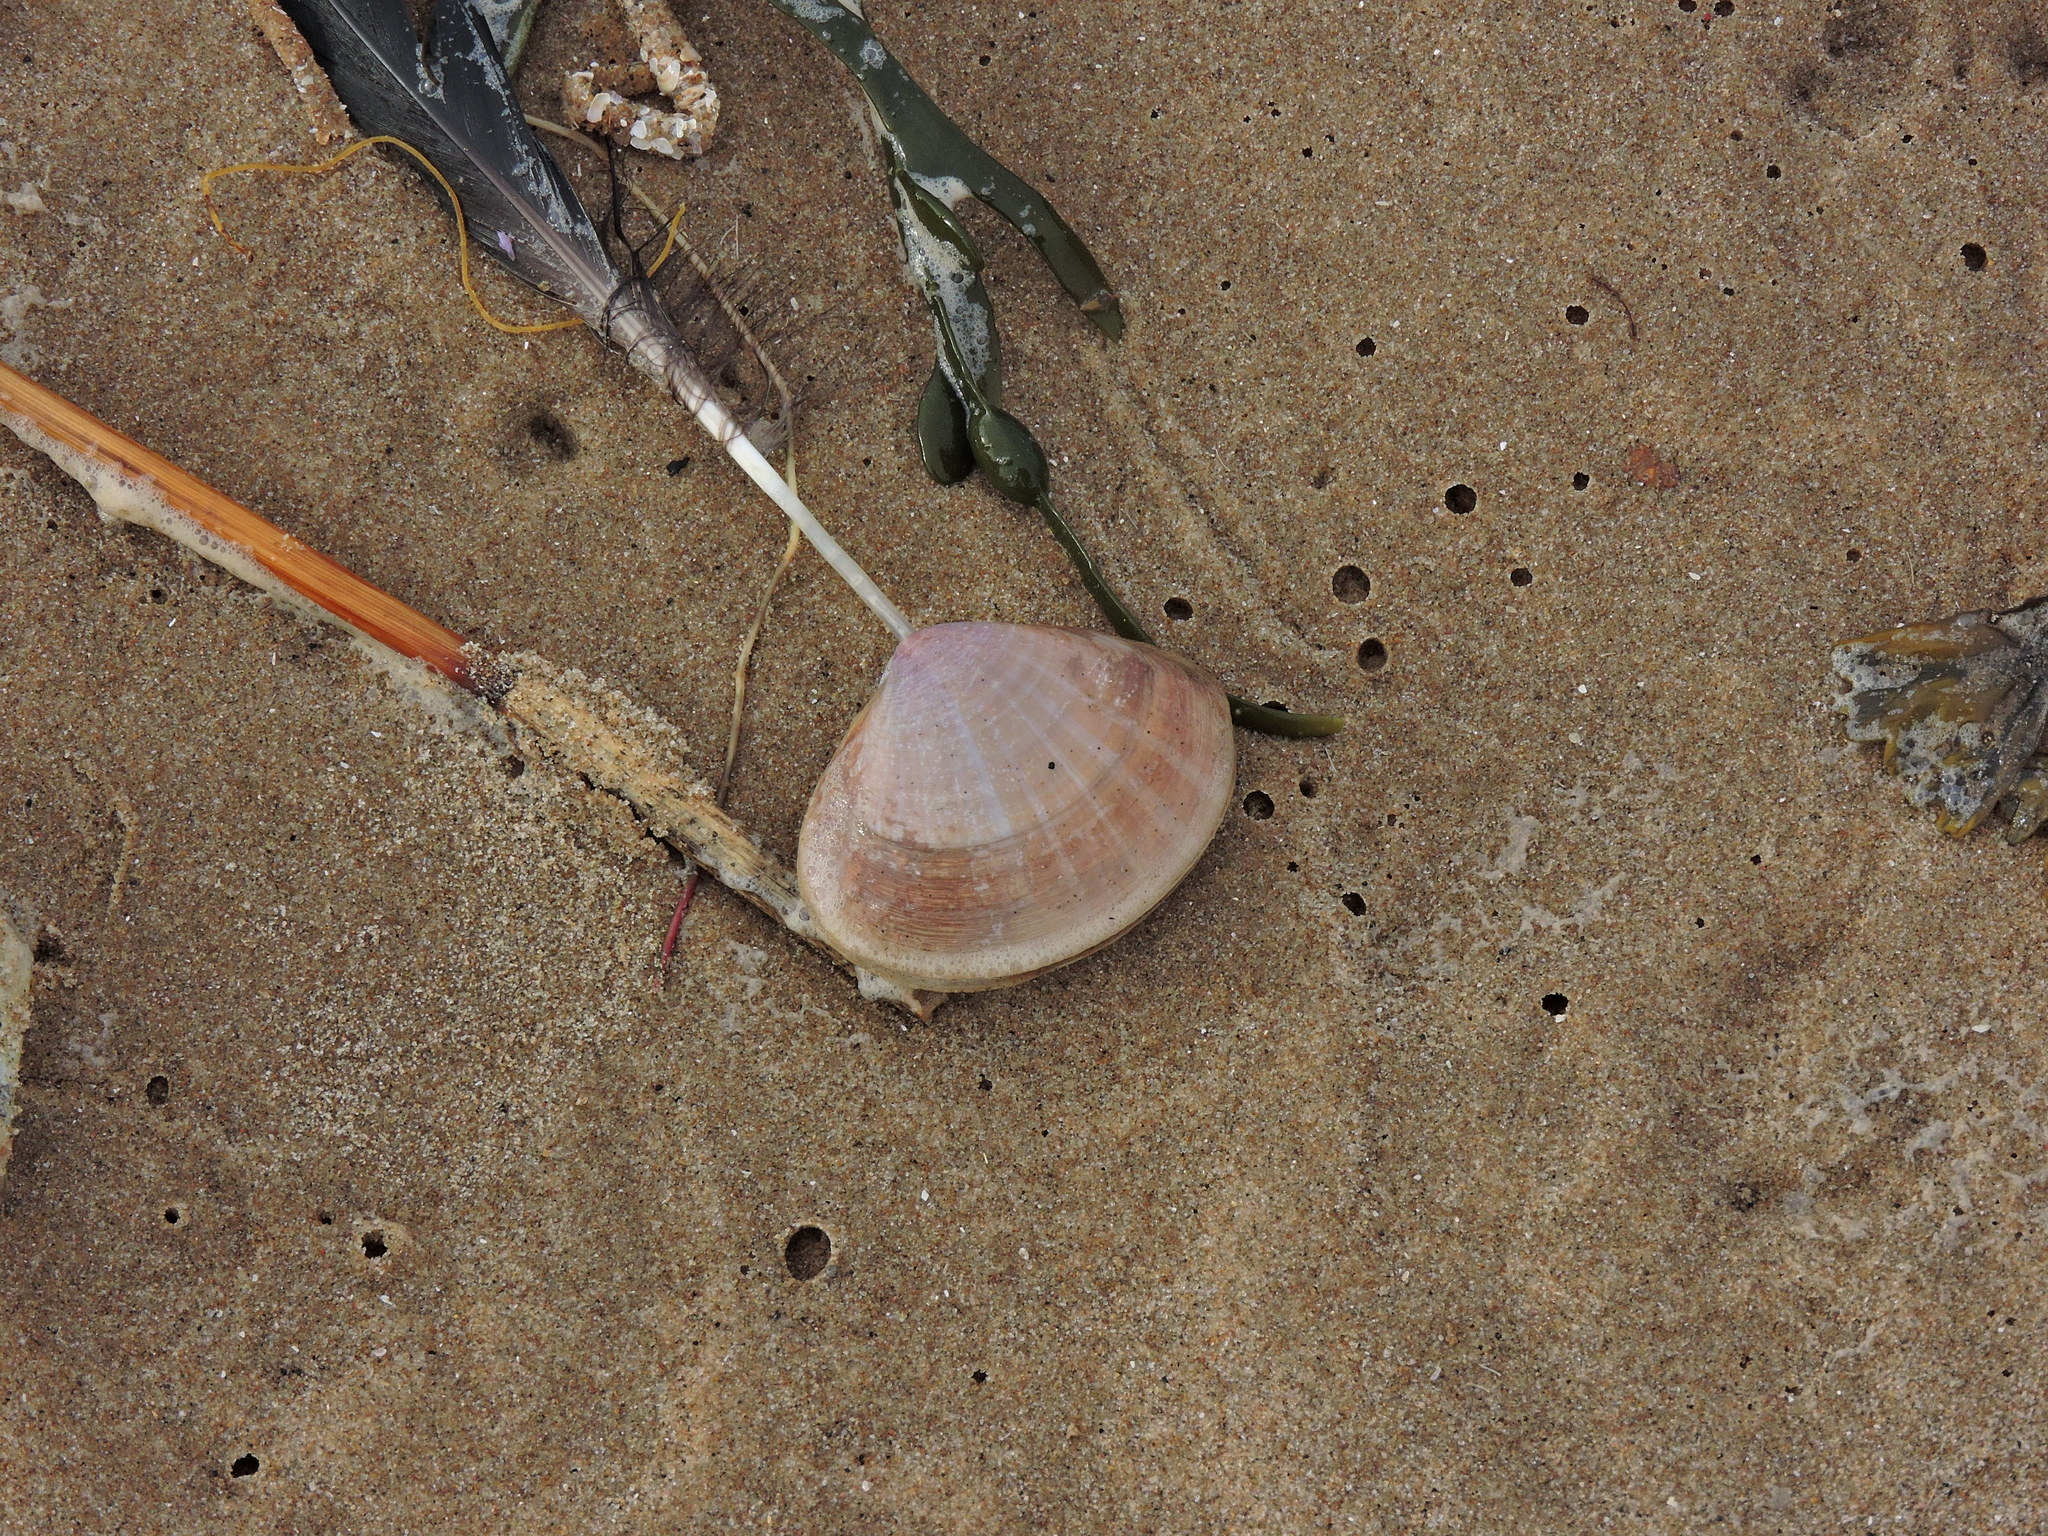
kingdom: Animalia
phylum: Mollusca
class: Bivalvia
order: Venerida
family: Mactridae
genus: Mactra
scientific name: Mactra stultorum
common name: Rayed trough shell
